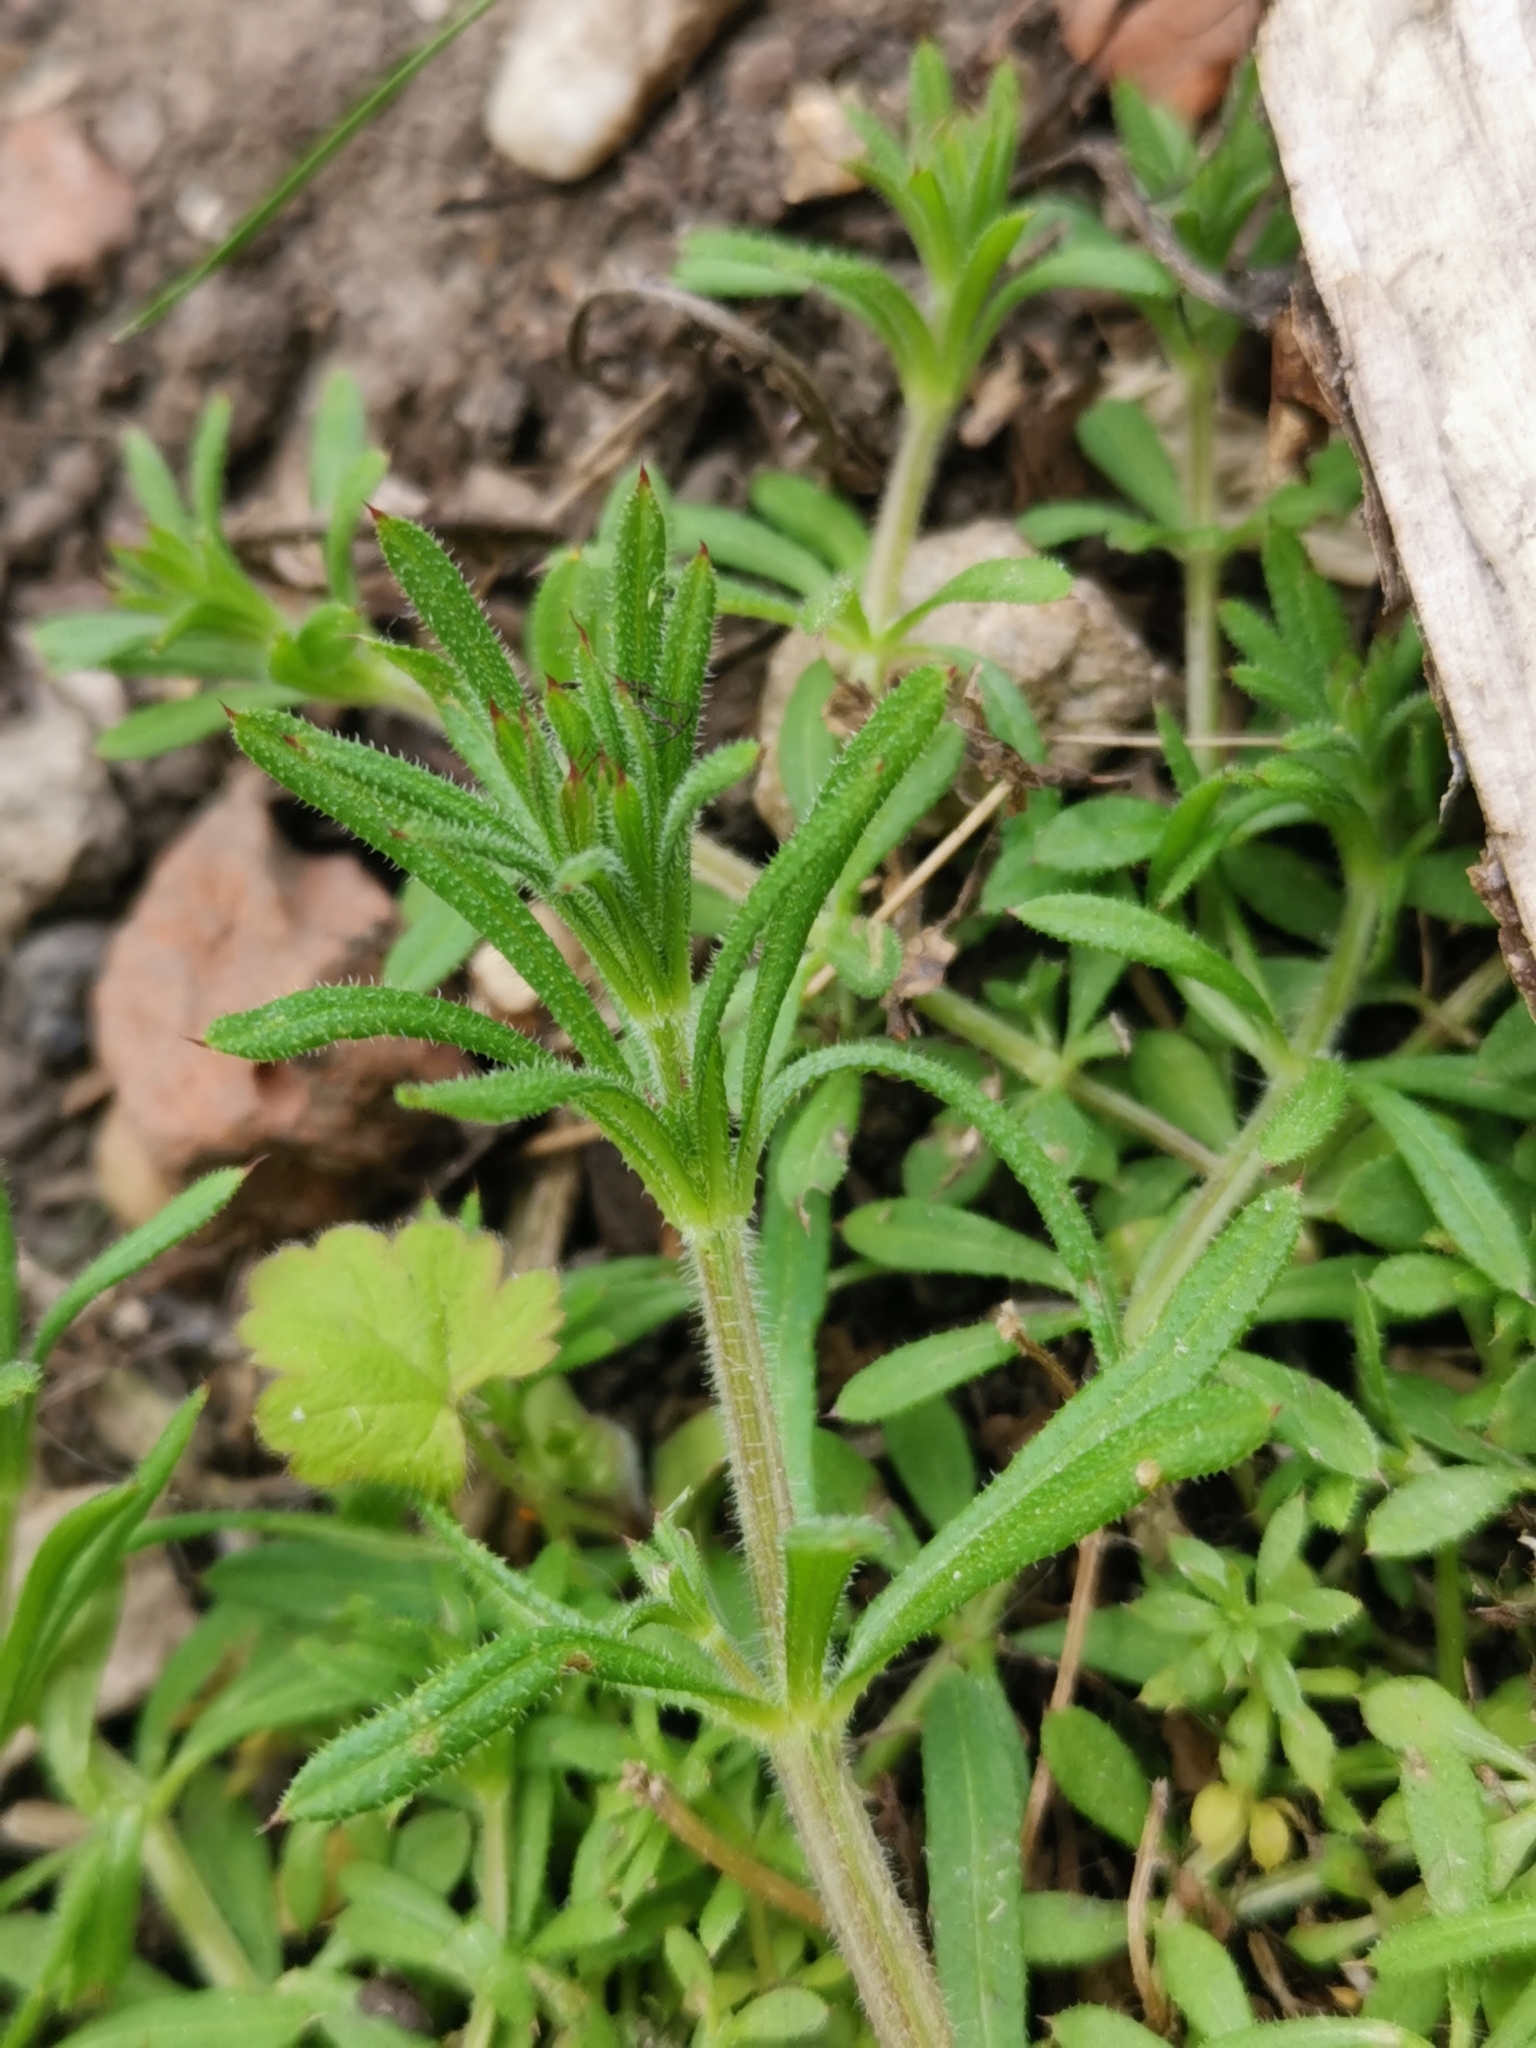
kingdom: Plantae
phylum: Tracheophyta
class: Magnoliopsida
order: Gentianales
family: Rubiaceae
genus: Galium
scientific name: Galium aparine
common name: Cleavers
